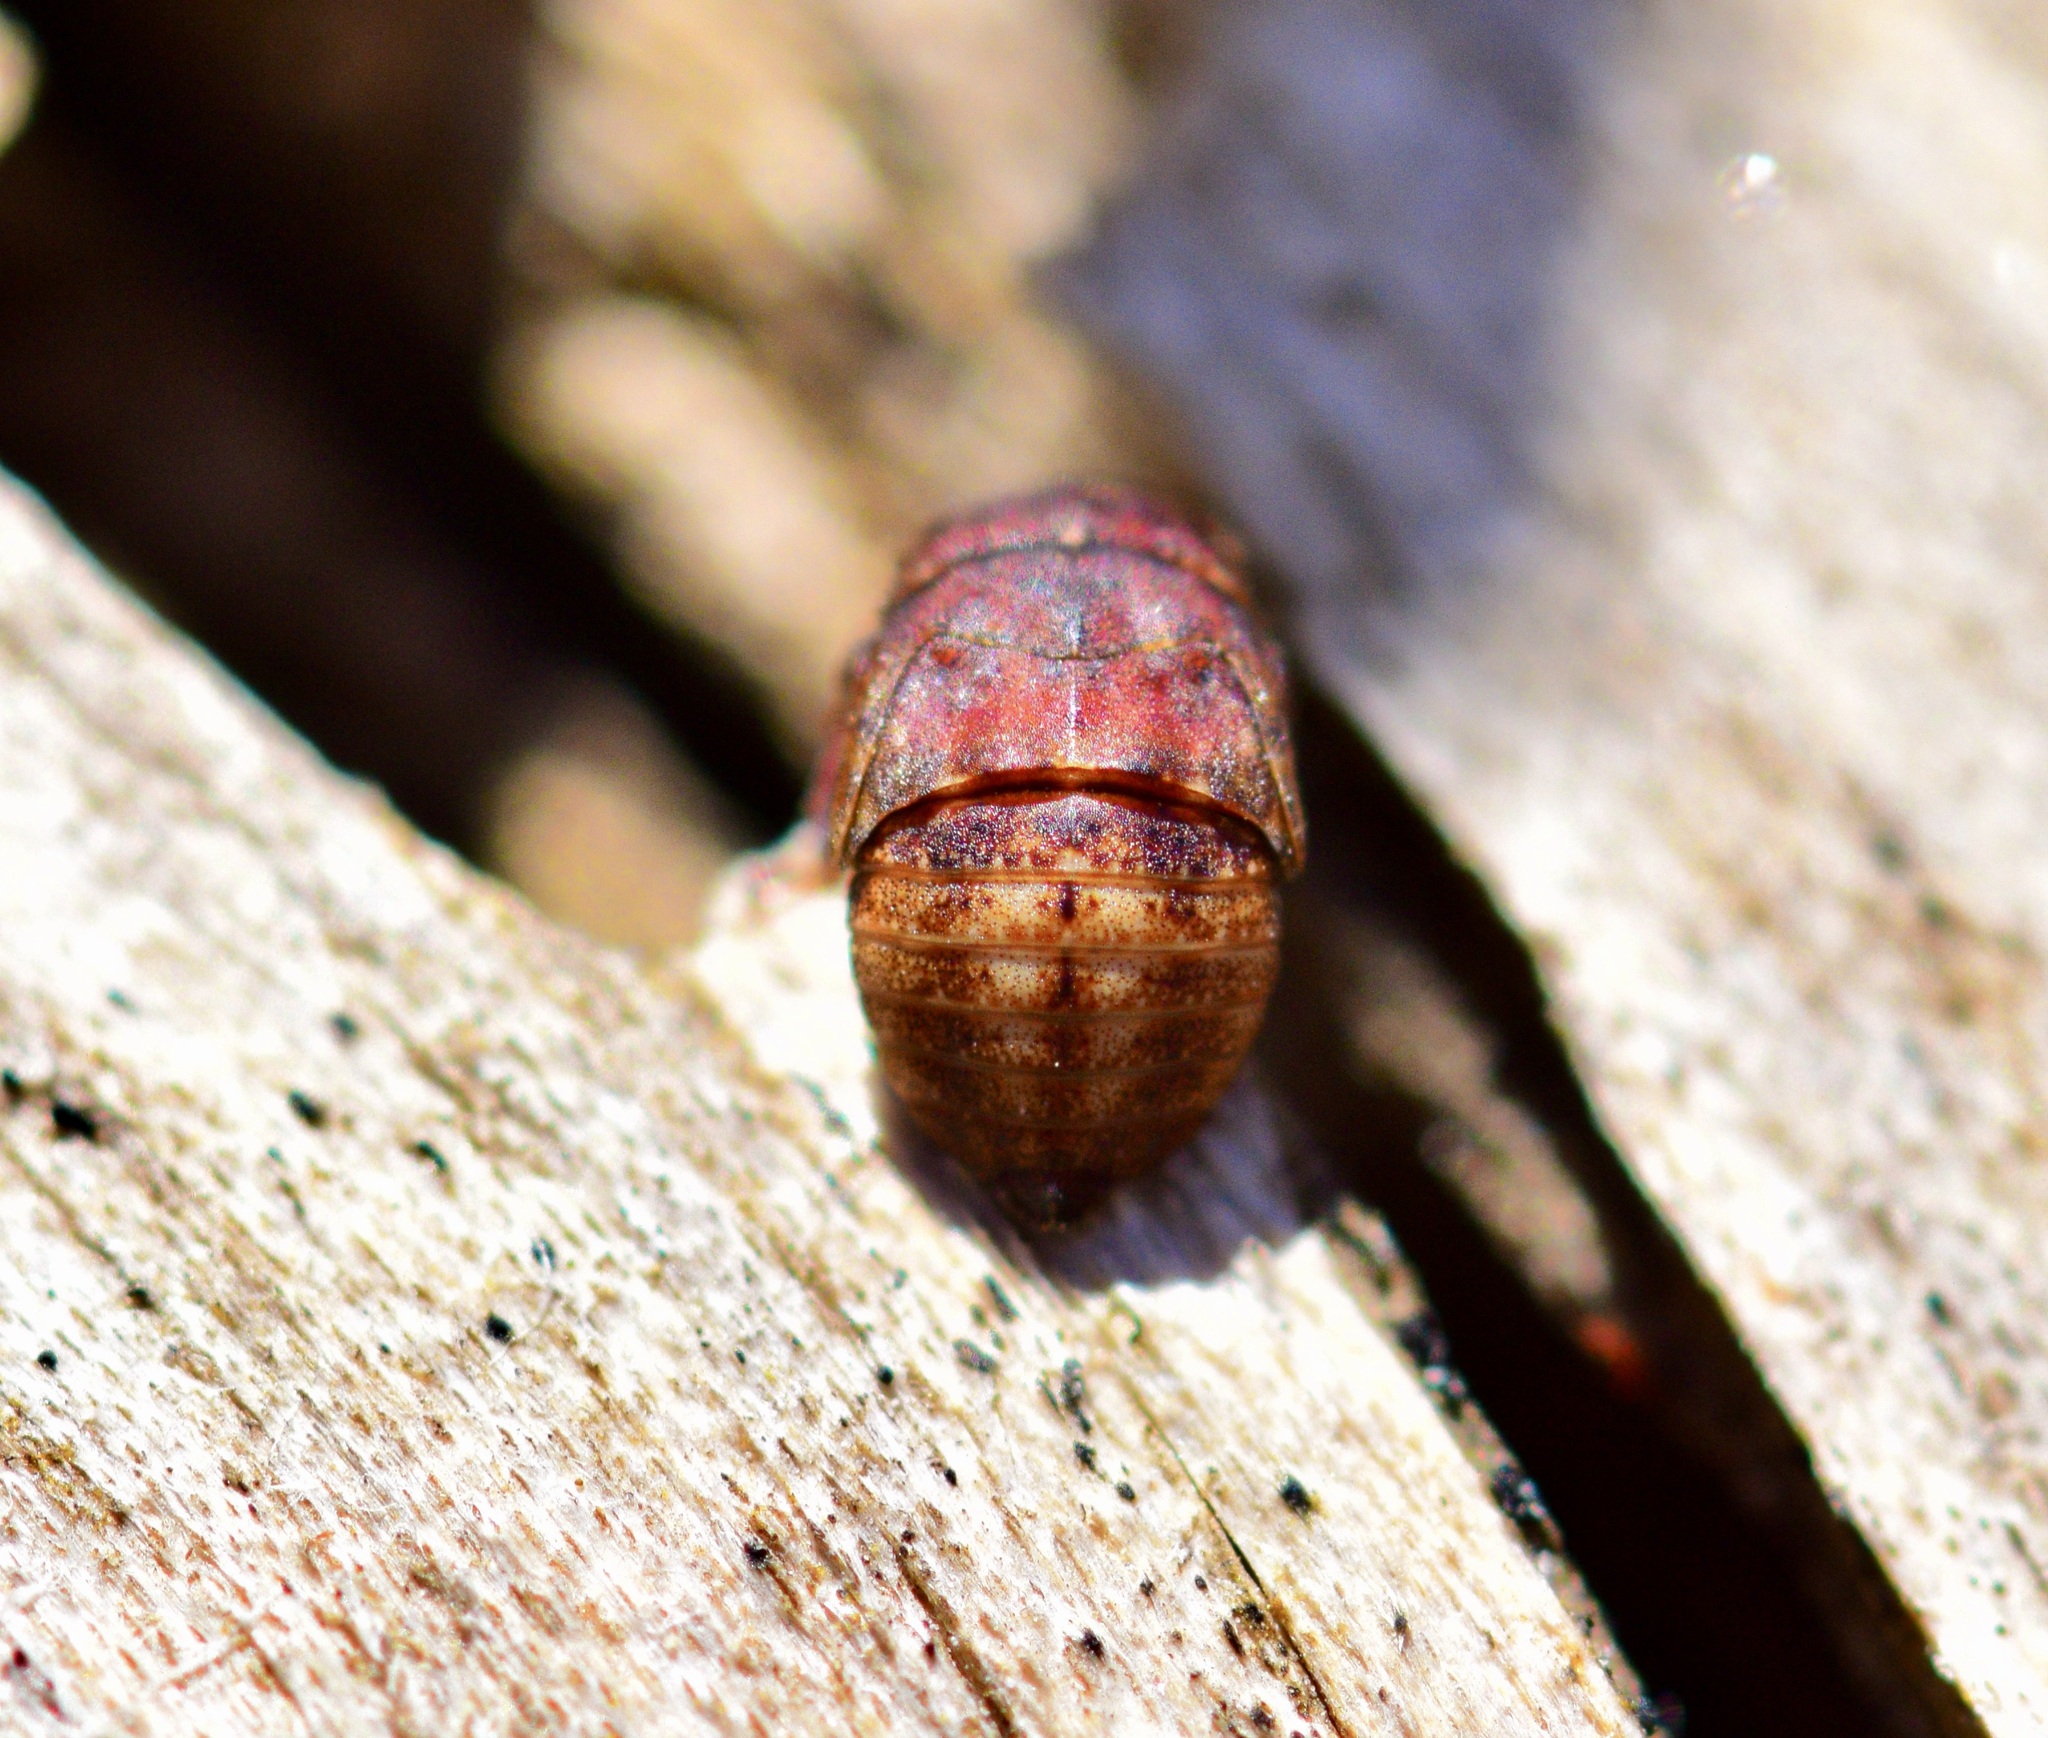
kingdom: Animalia
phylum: Arthropoda
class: Insecta
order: Hemiptera
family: Cicadellidae
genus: Penthimia
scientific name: Penthimia americana
